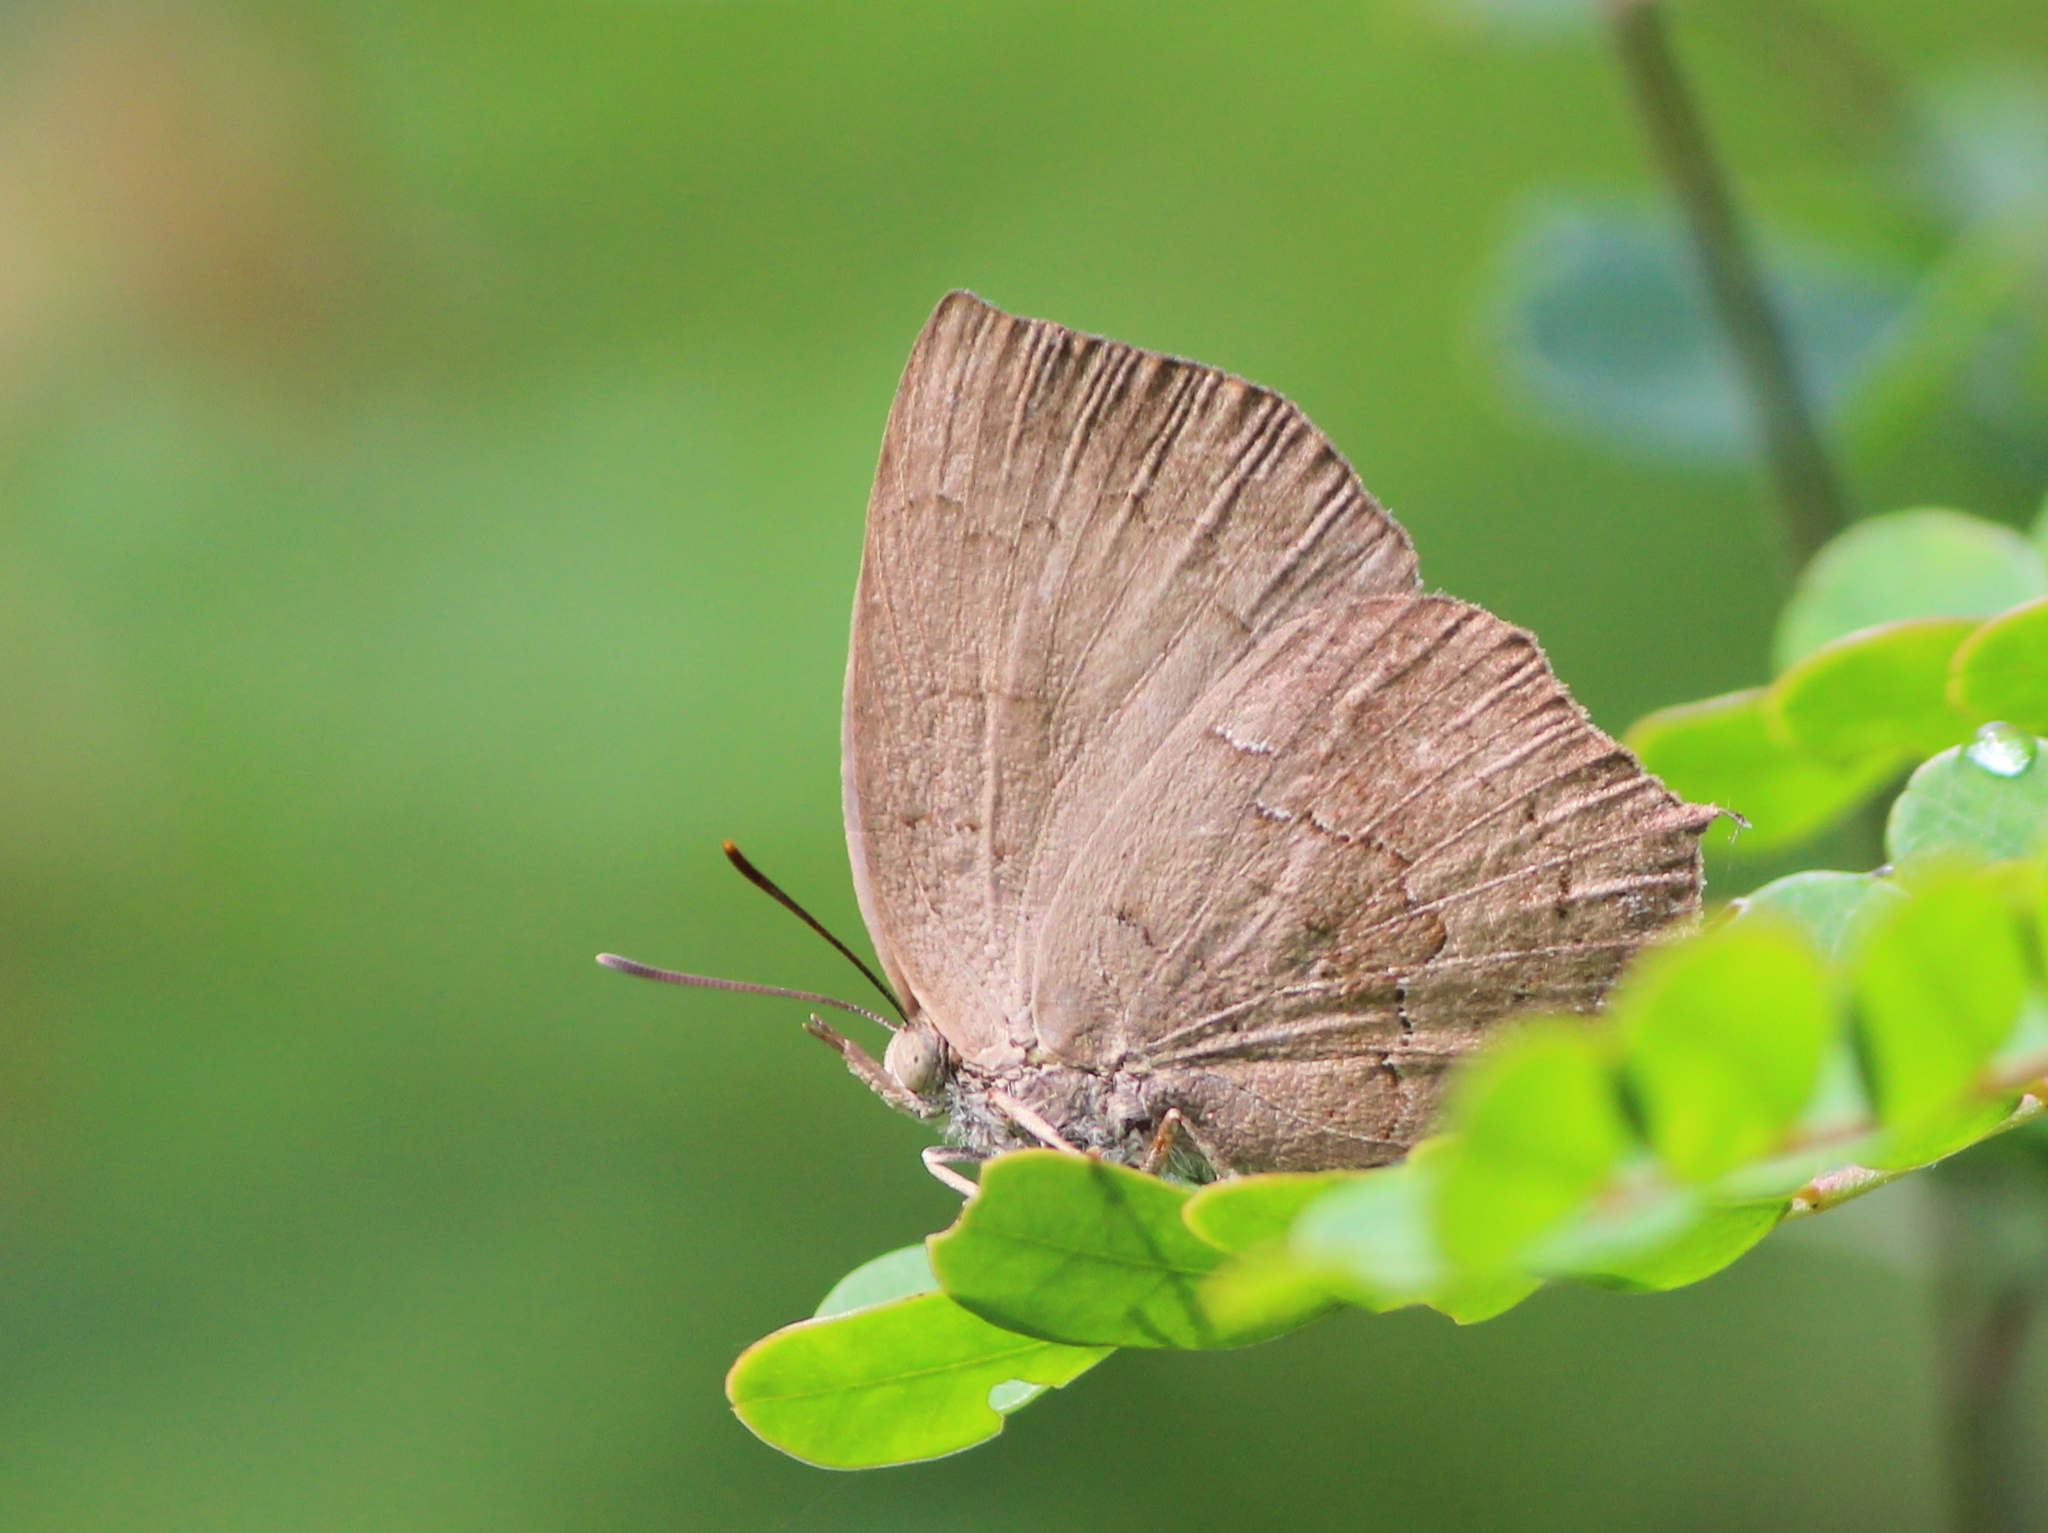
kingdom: Animalia
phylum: Arthropoda
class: Insecta
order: Lepidoptera
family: Lycaenidae
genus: Surendra
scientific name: Surendra quercetorum
